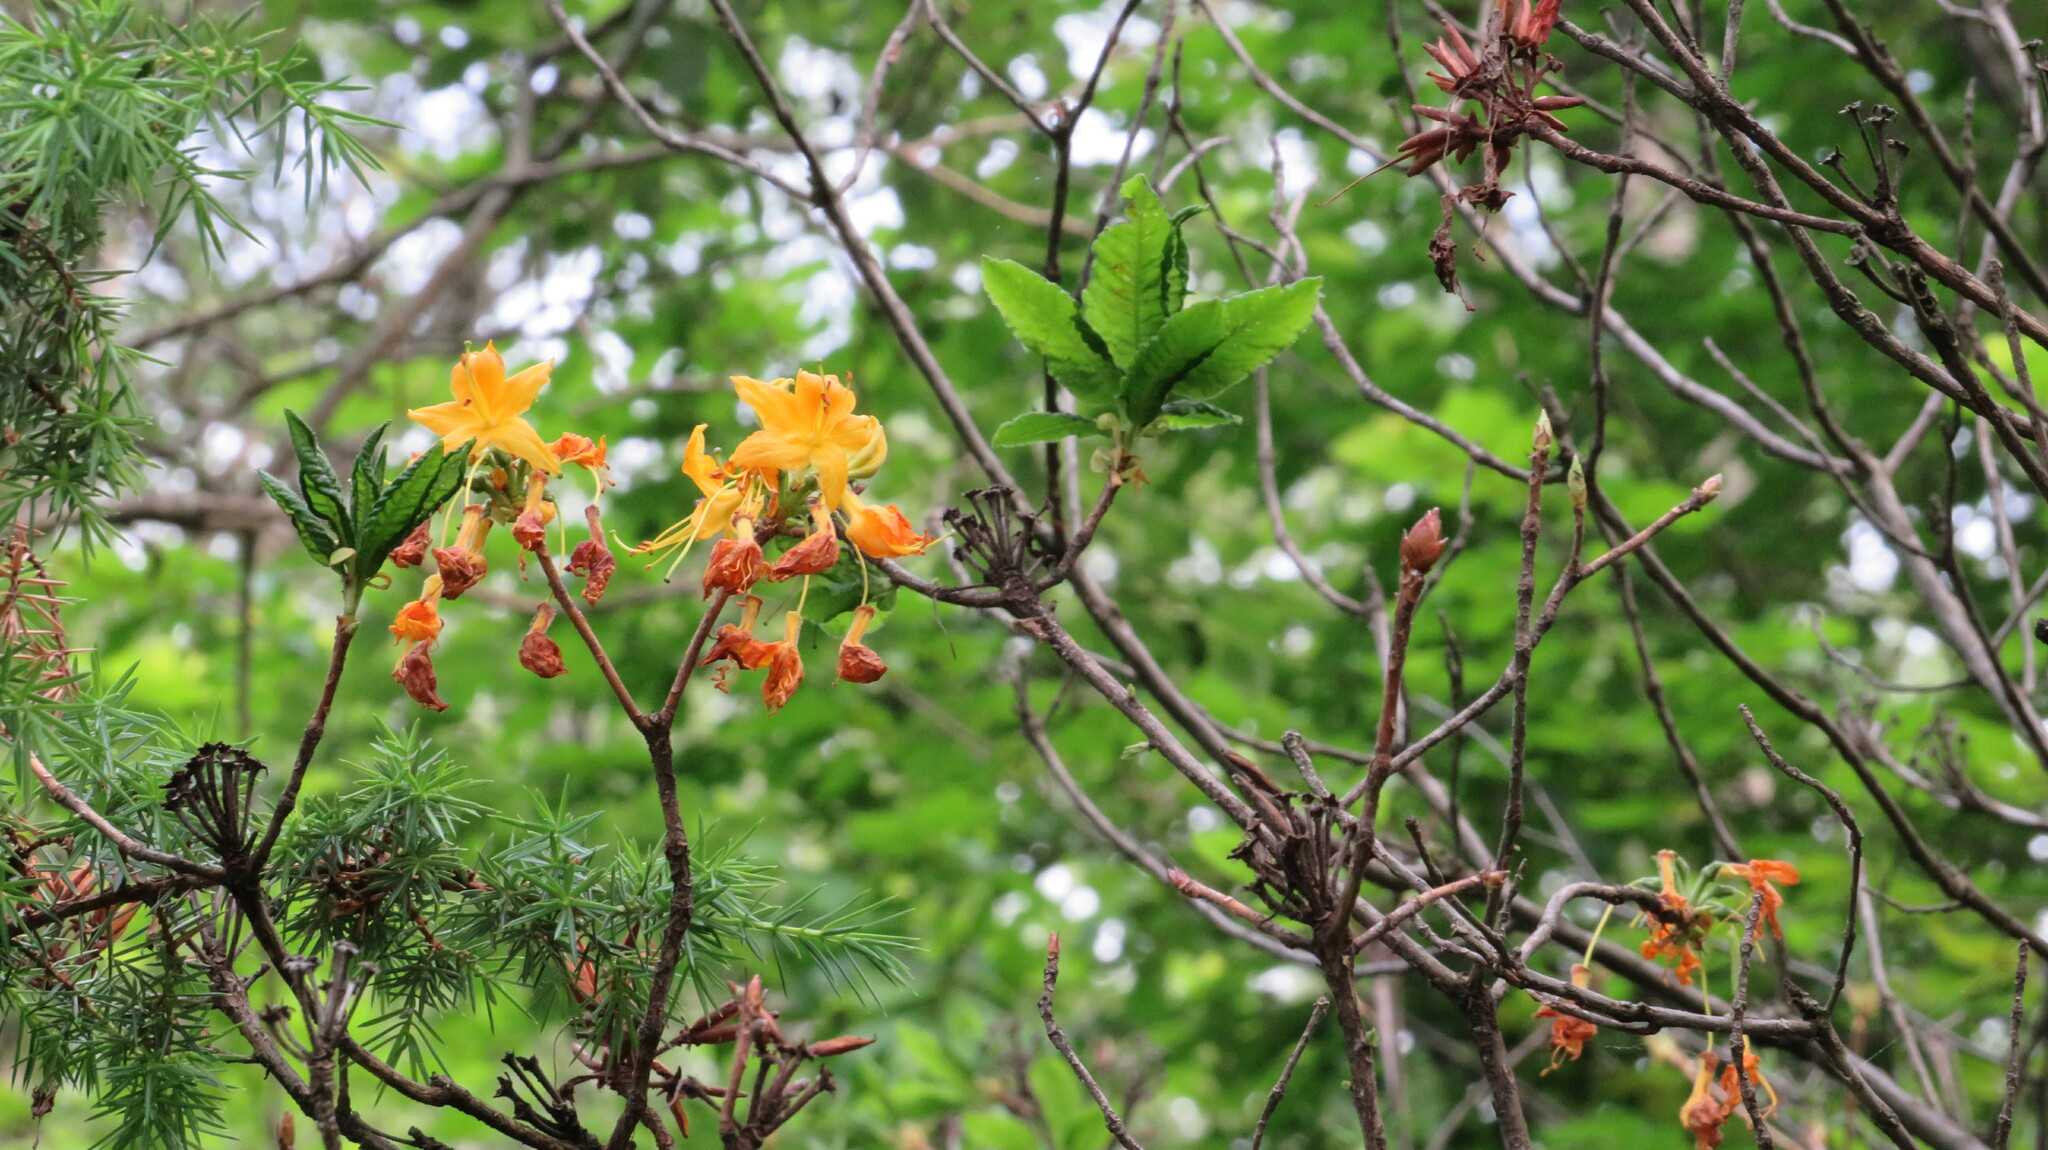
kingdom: Plantae
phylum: Tracheophyta
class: Magnoliopsida
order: Ericales
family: Ericaceae
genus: Rhododendron
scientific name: Rhododendron luteum
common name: Yellow azalea
